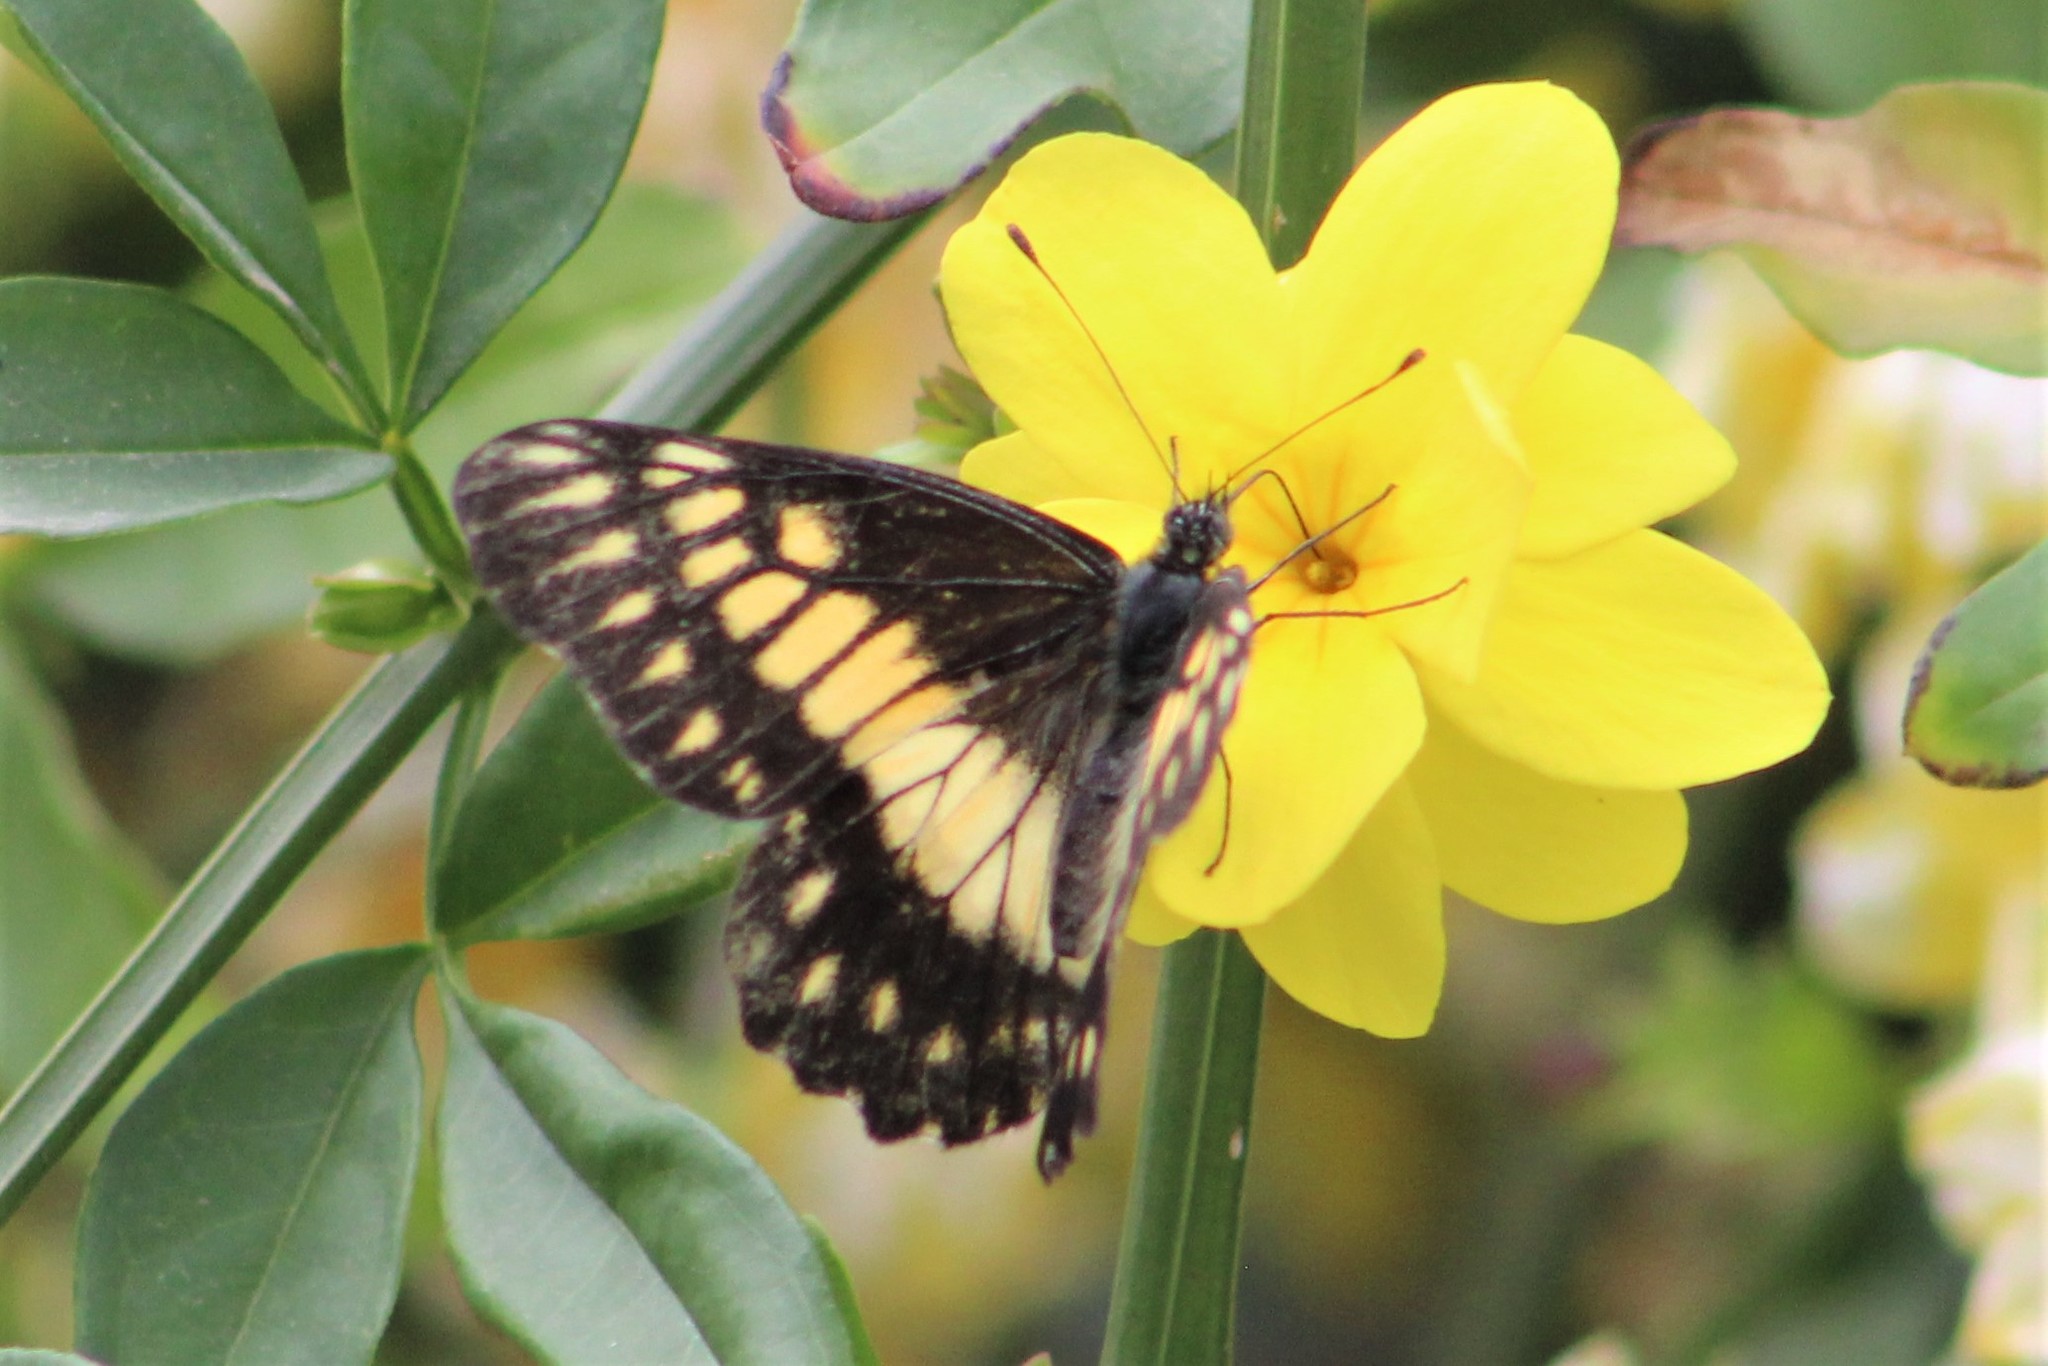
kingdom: Animalia
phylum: Arthropoda
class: Insecta
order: Lepidoptera
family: Pieridae
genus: Archonias
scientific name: Archonias nimbice
